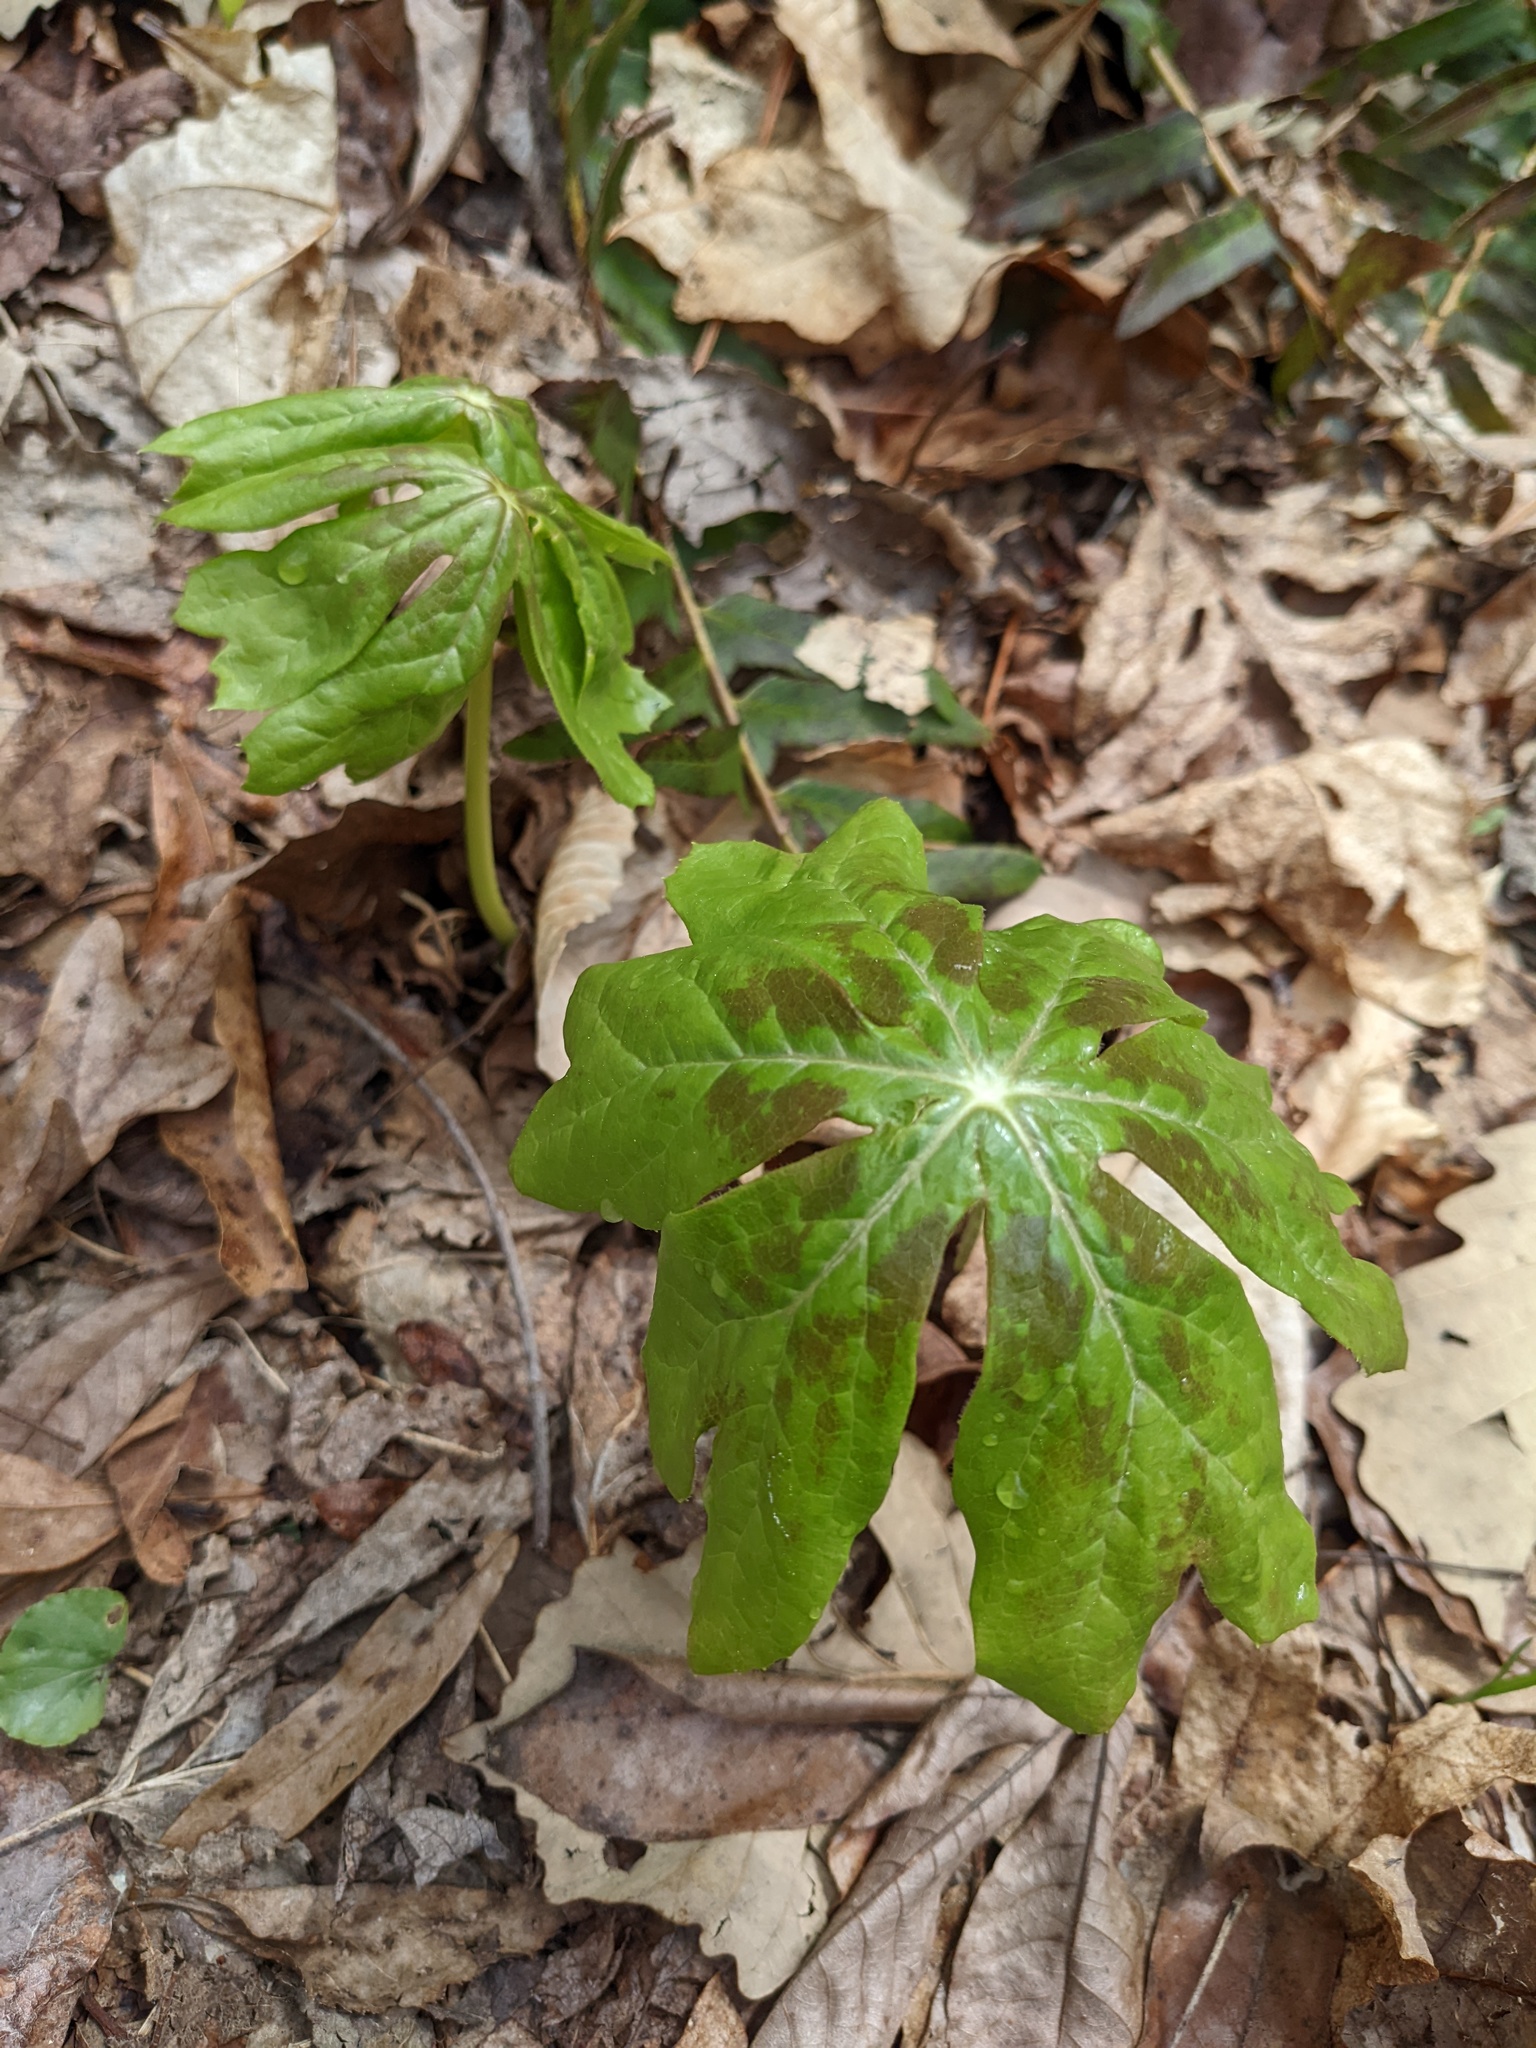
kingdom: Plantae
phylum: Tracheophyta
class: Magnoliopsida
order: Ranunculales
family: Berberidaceae
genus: Podophyllum
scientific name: Podophyllum peltatum
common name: Wild mandrake
